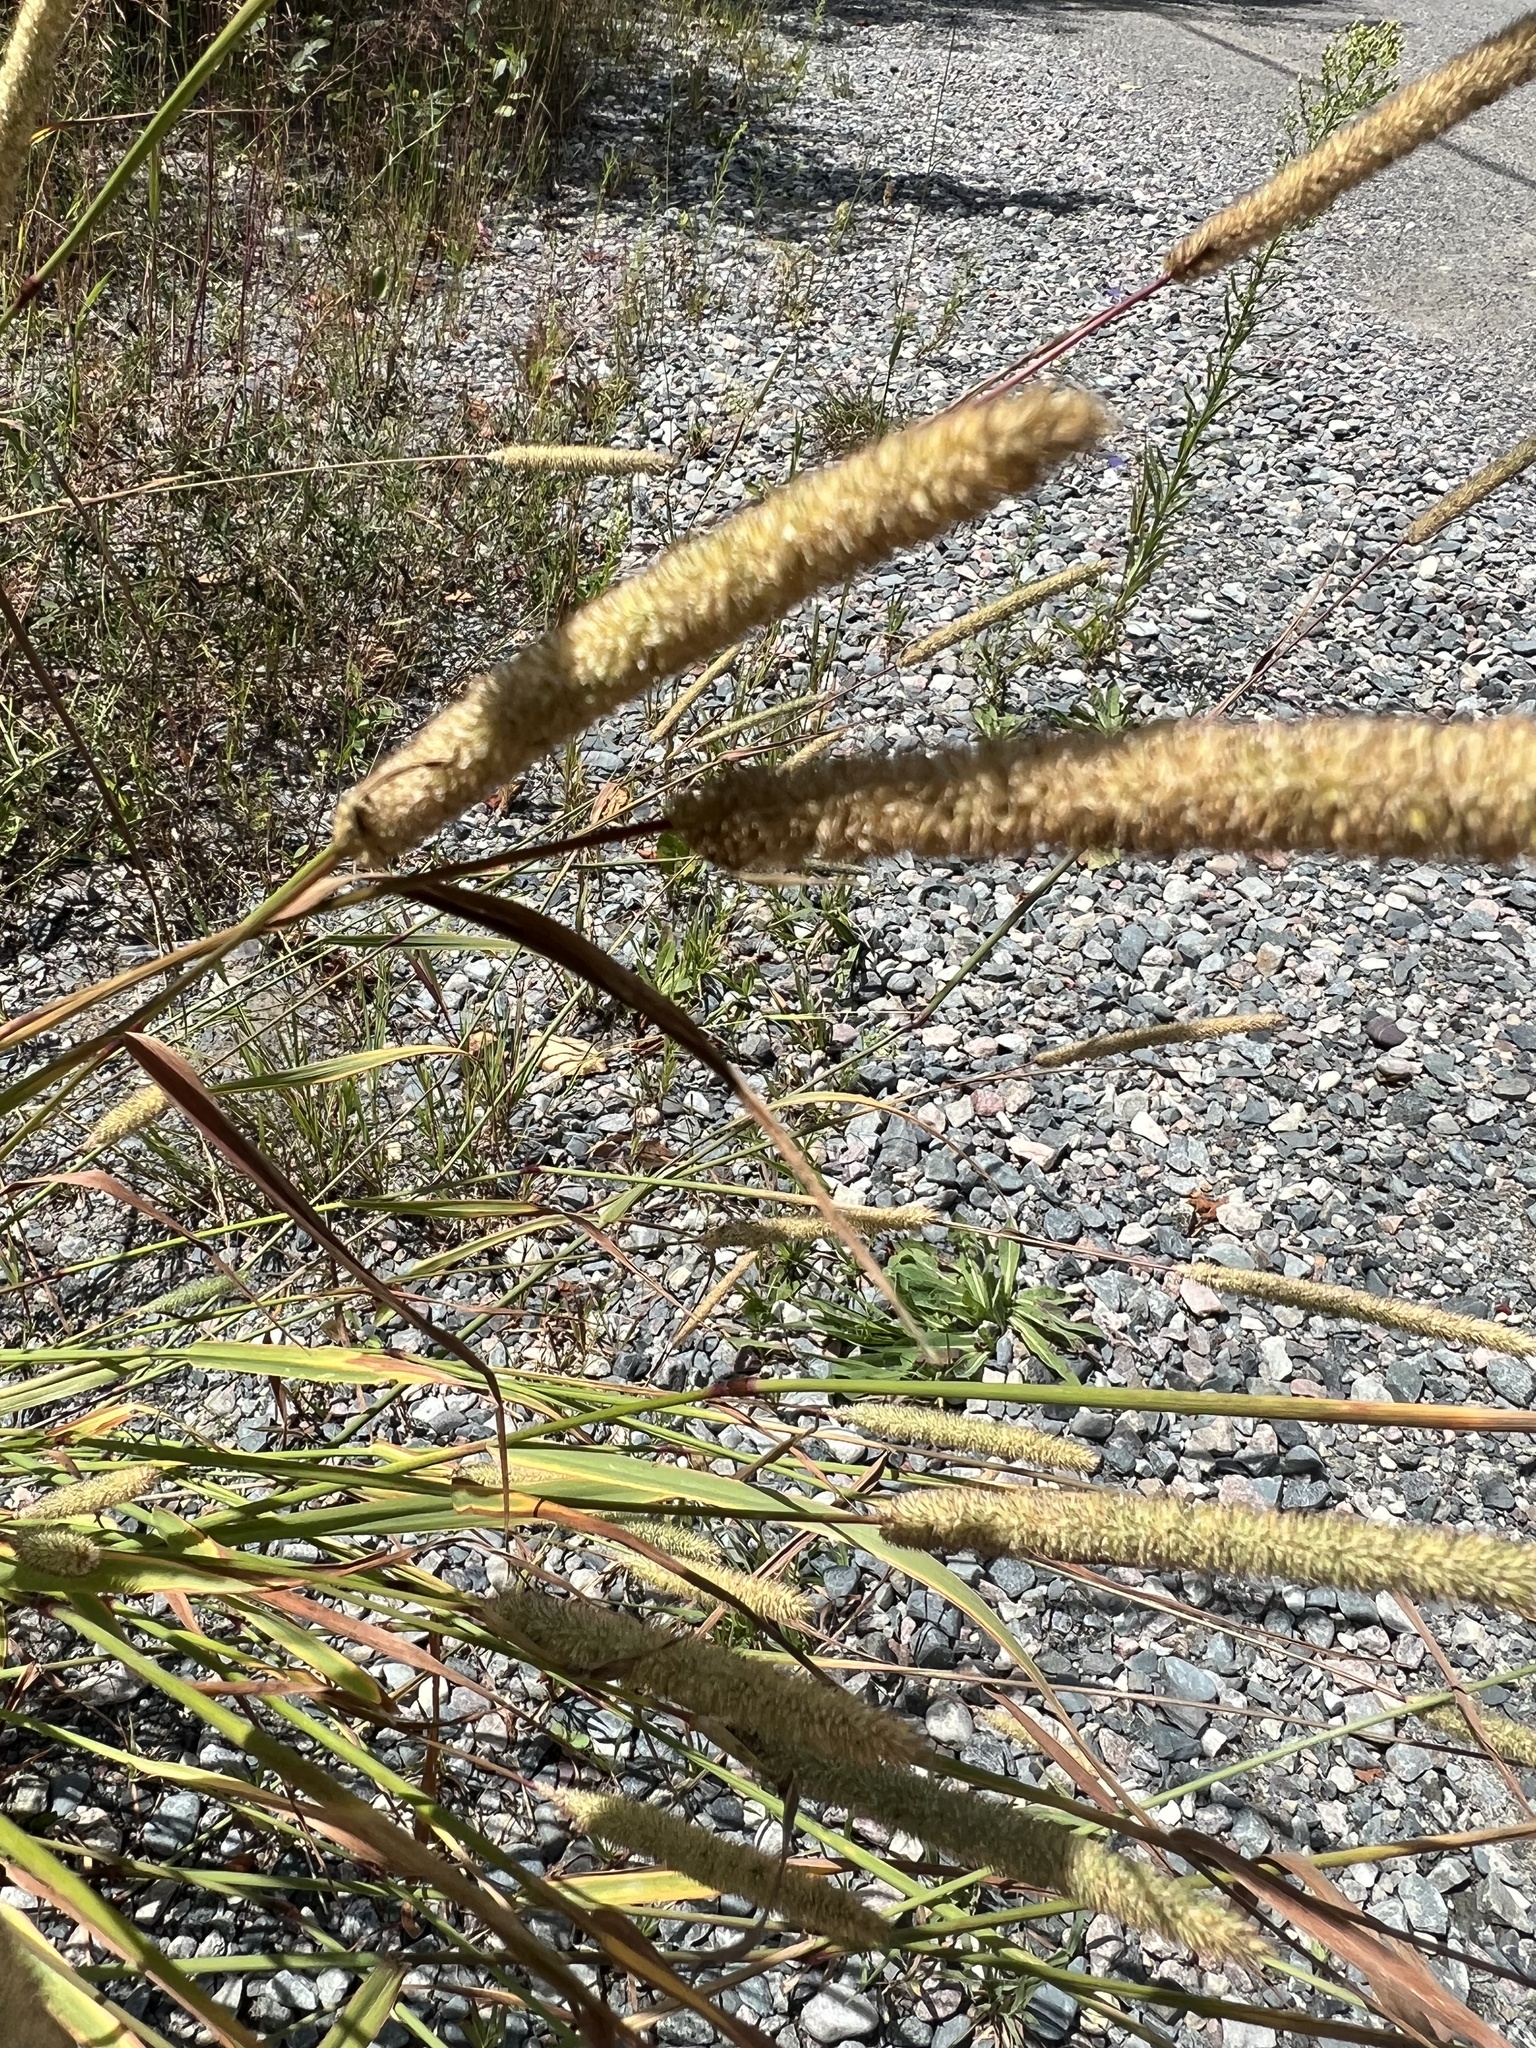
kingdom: Plantae
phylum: Tracheophyta
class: Liliopsida
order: Poales
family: Poaceae
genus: Phleum
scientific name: Phleum pratense
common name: Timothy grass
